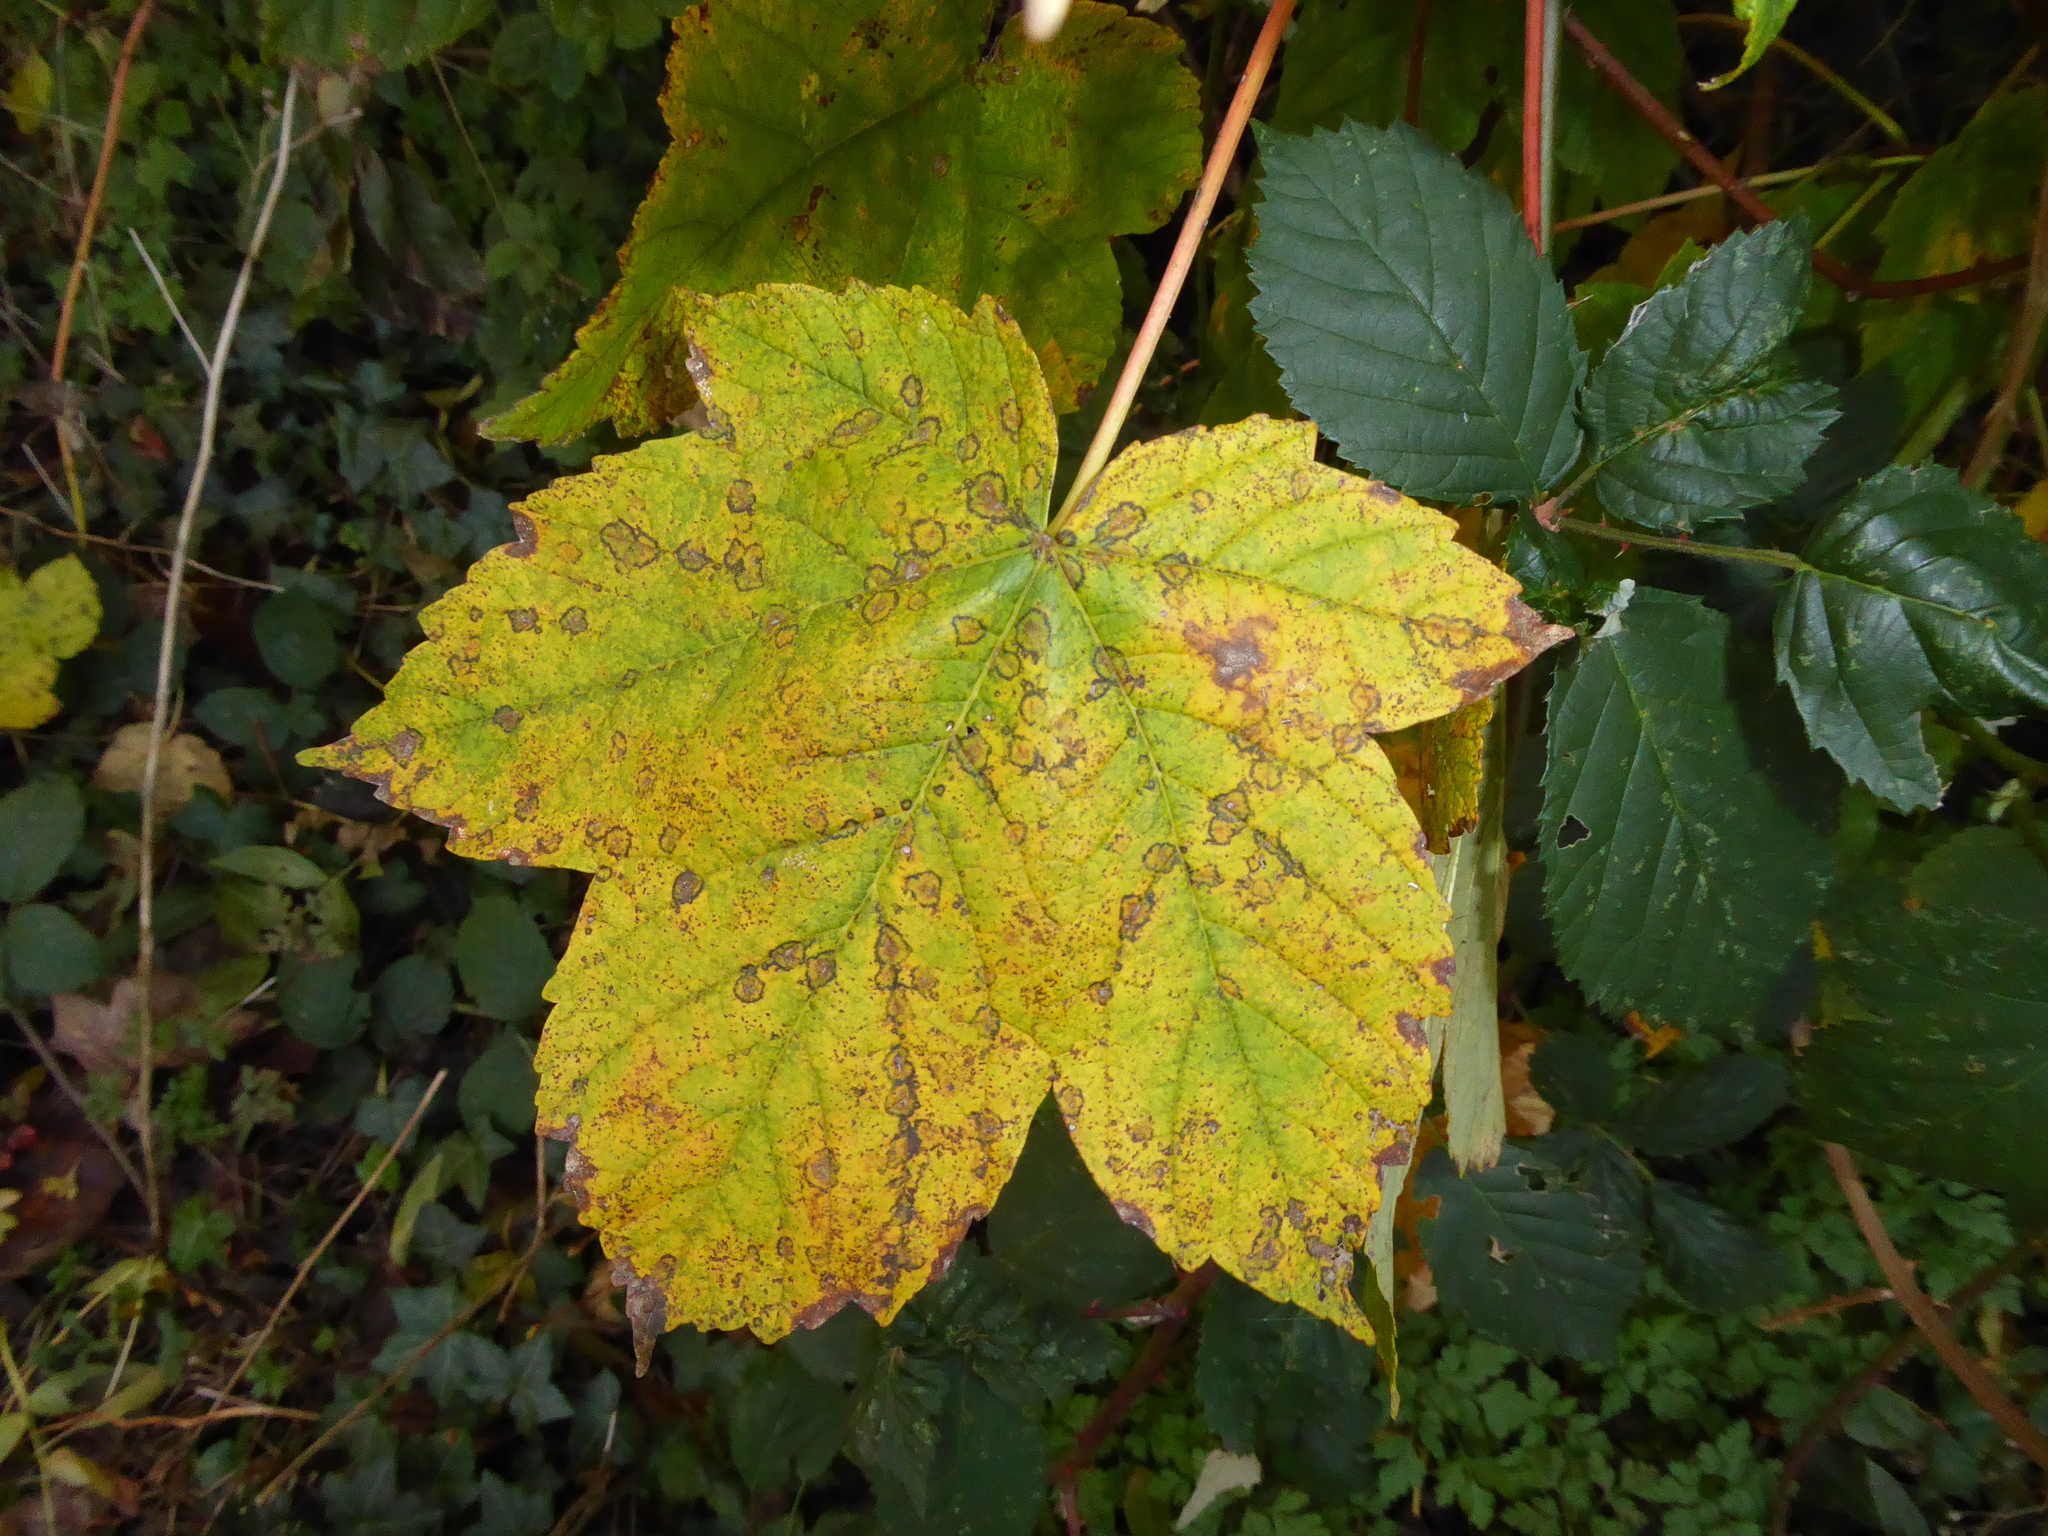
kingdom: Plantae
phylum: Tracheophyta
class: Magnoliopsida
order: Sapindales
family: Sapindaceae
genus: Acer
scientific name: Acer pseudoplatanus
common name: Sycamore
